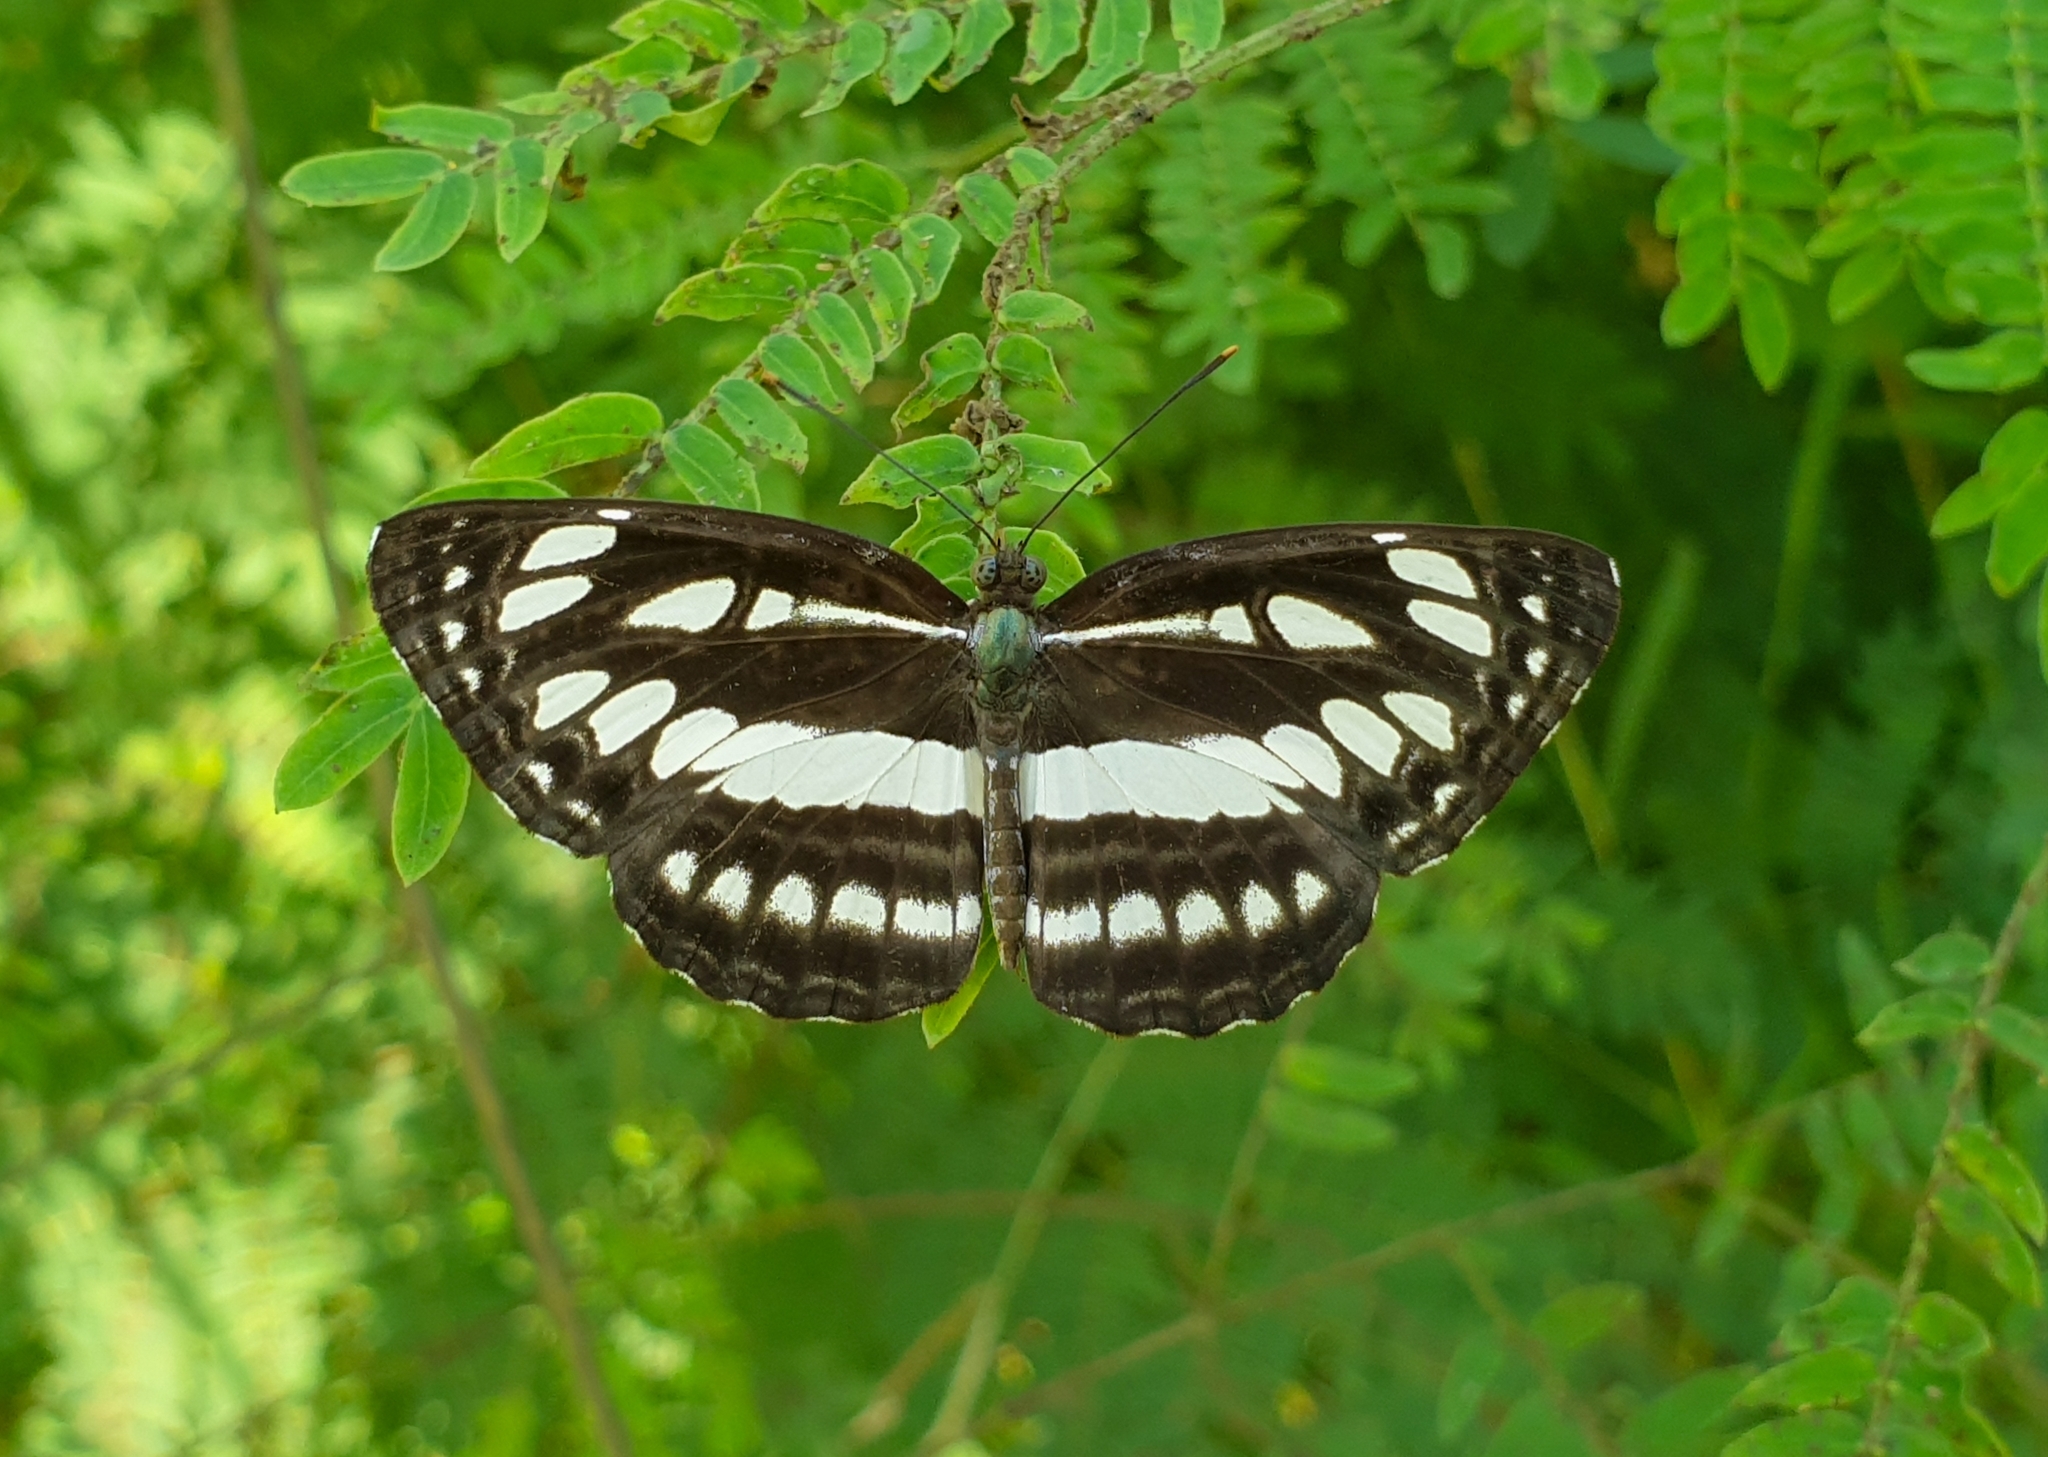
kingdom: Animalia
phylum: Arthropoda
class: Insecta
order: Lepidoptera
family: Nymphalidae
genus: Neptis
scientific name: Neptis hylas
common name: Common sailer
